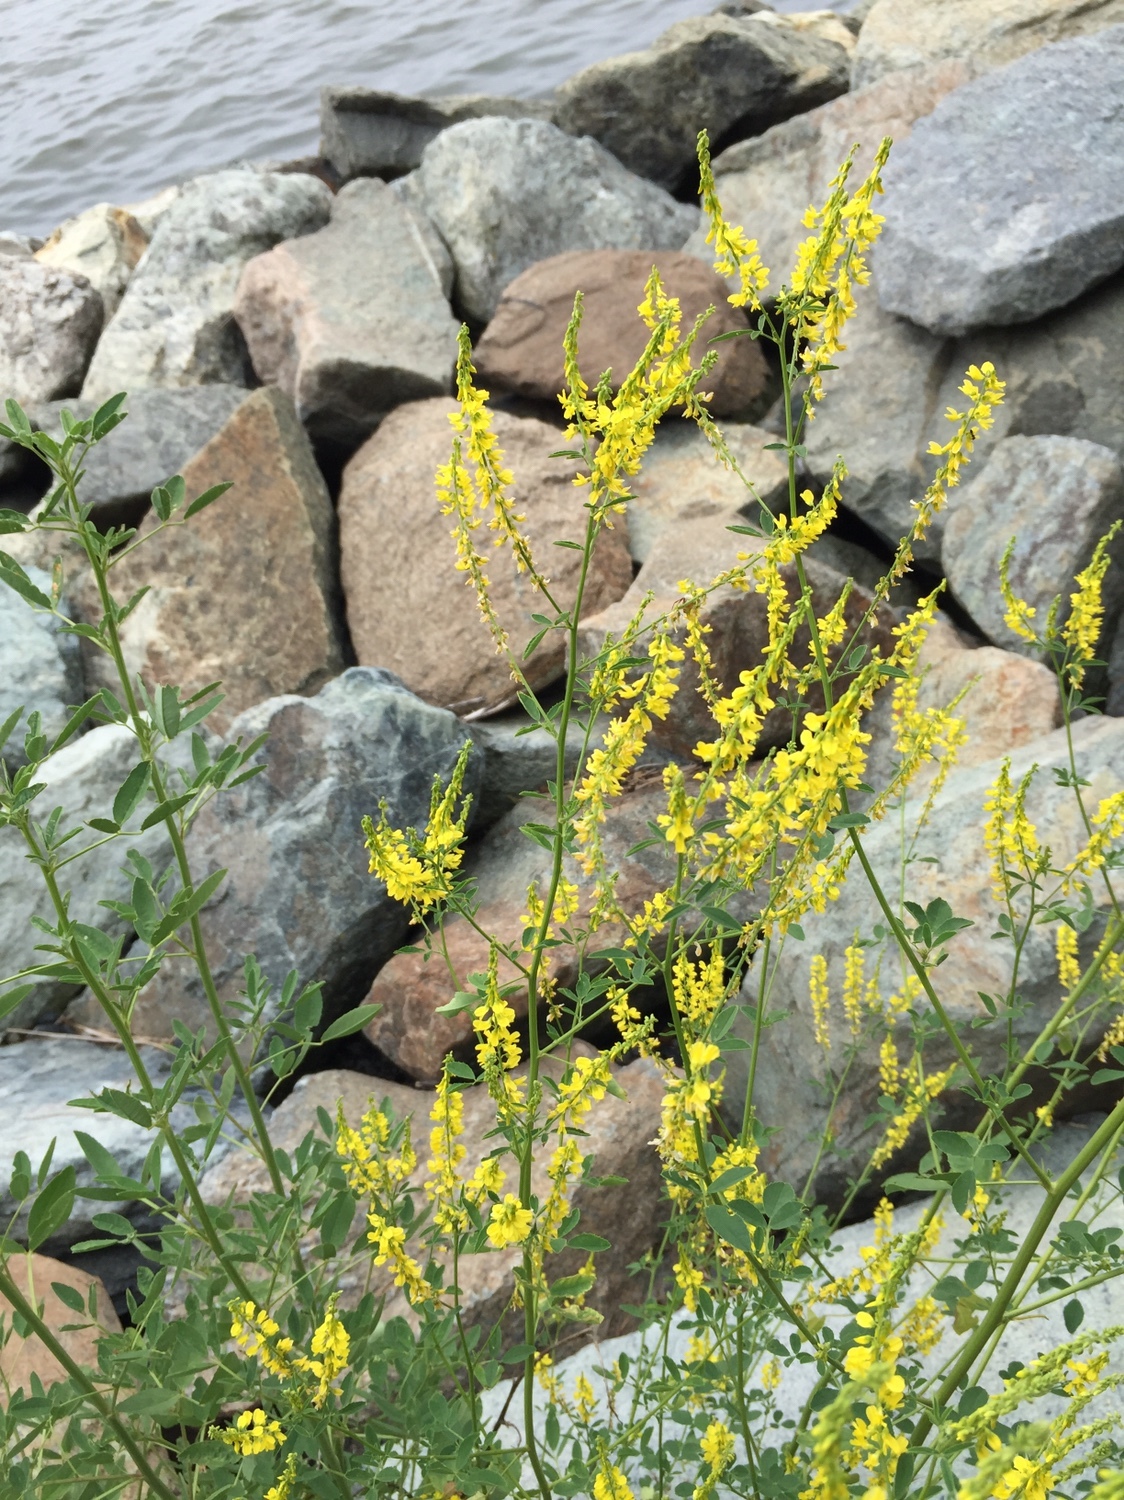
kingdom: Plantae
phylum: Tracheophyta
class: Magnoliopsida
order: Fabales
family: Fabaceae
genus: Melilotus
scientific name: Melilotus officinalis
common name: Sweetclover
